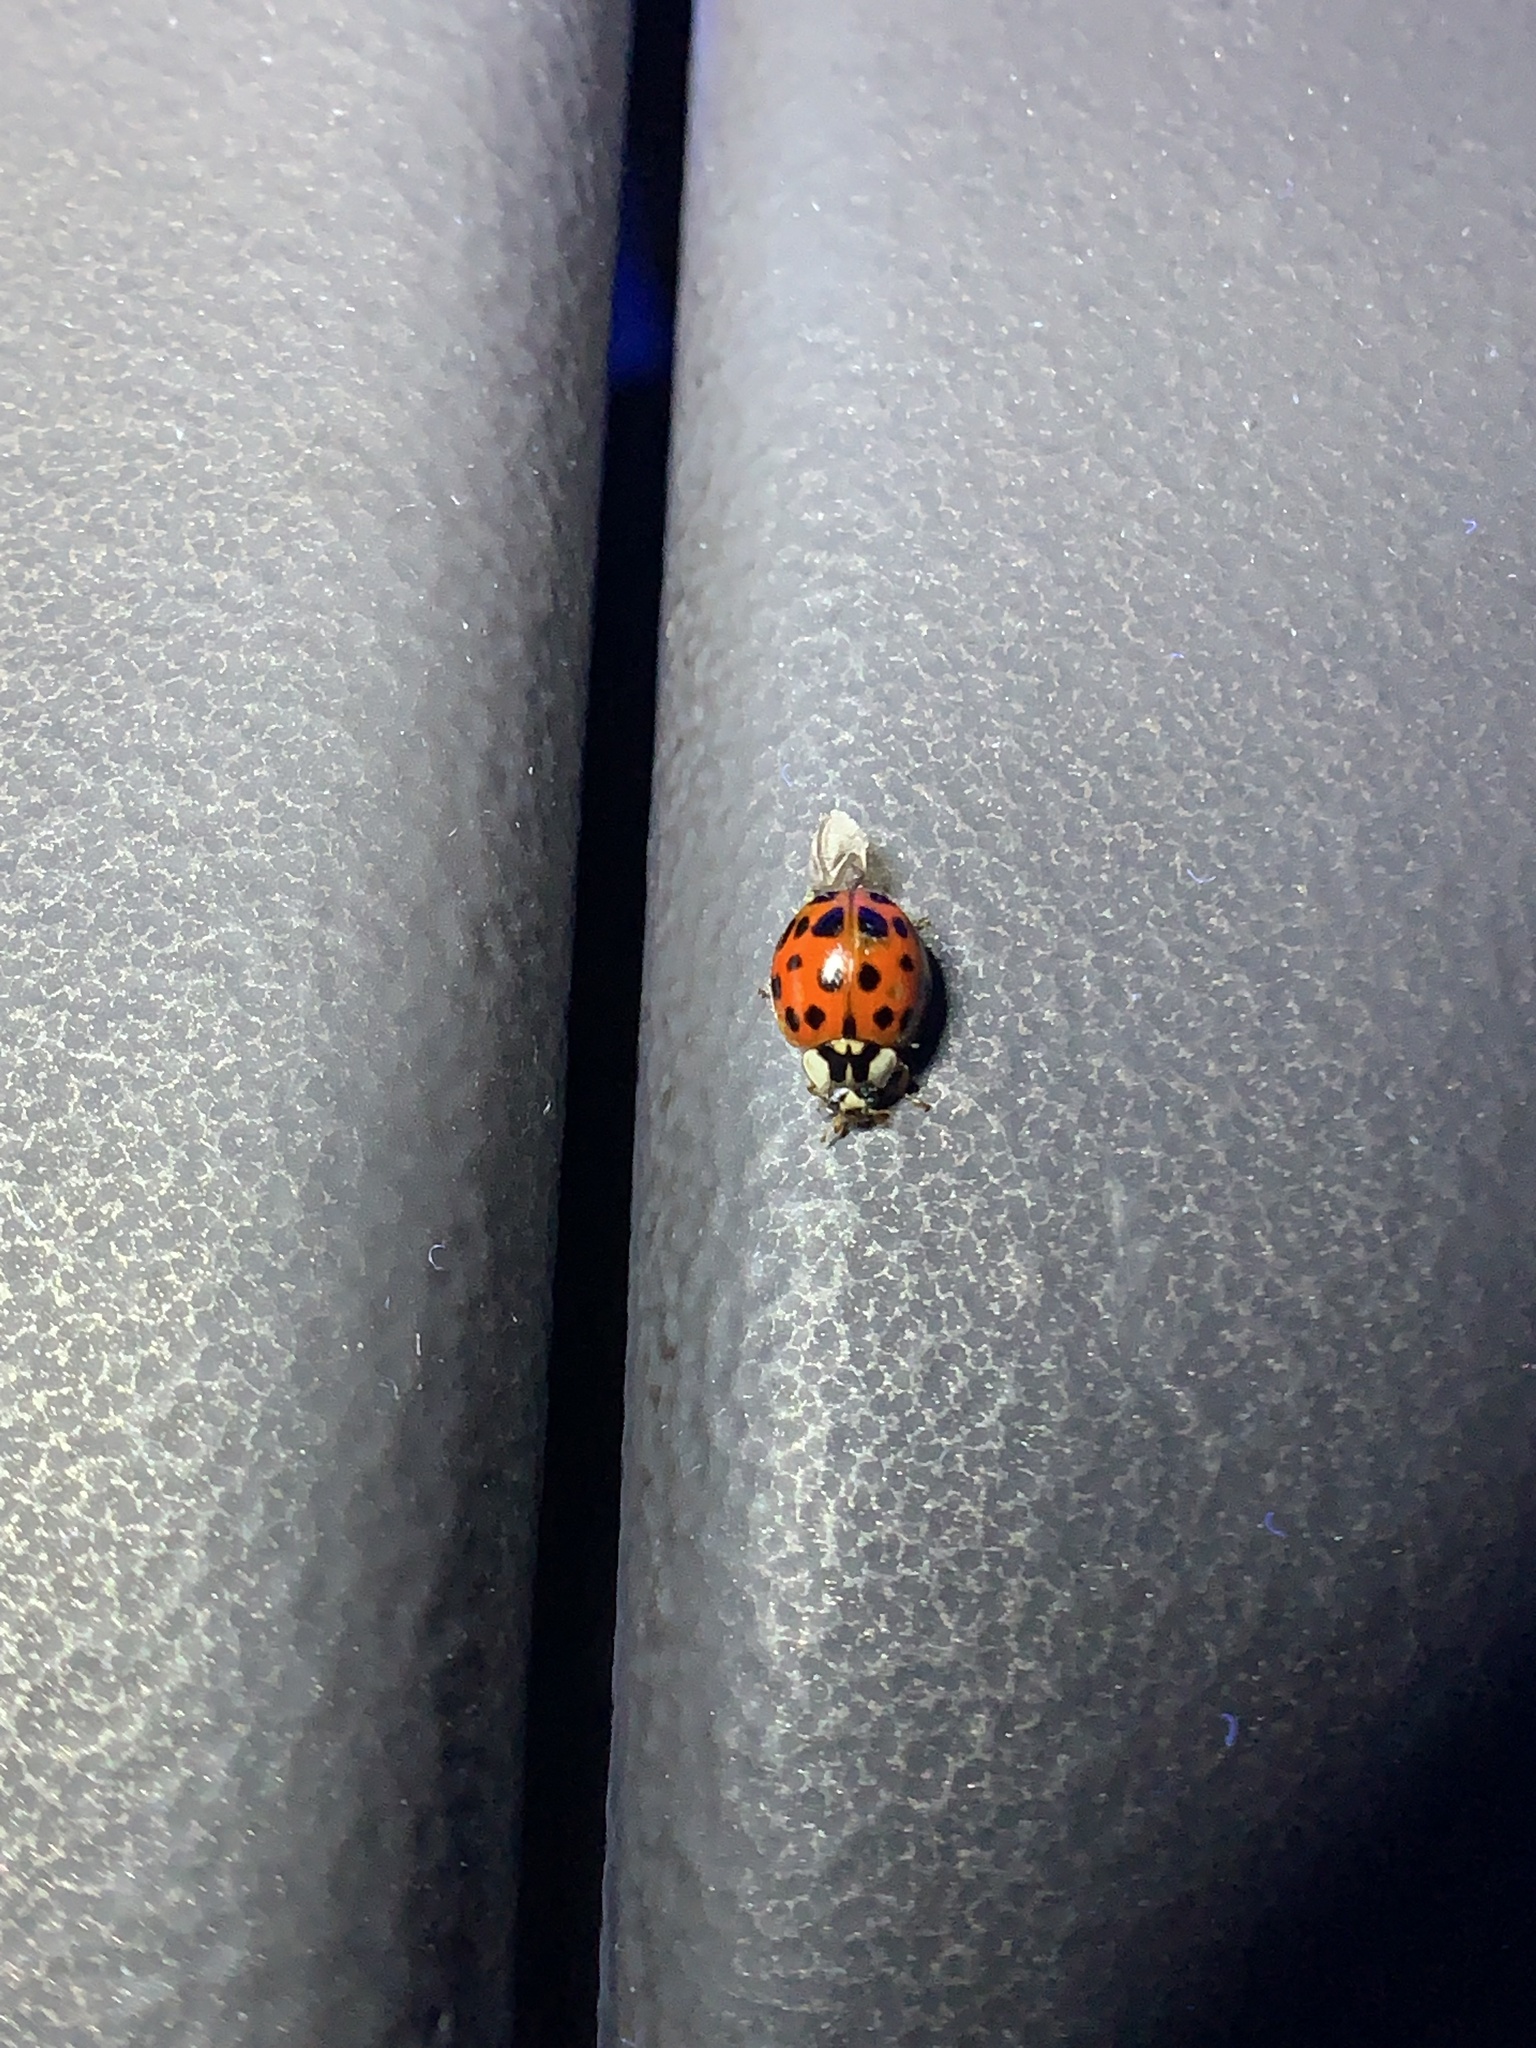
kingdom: Animalia
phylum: Arthropoda
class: Insecta
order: Coleoptera
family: Coccinellidae
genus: Harmonia
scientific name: Harmonia axyridis
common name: Harlequin ladybird
